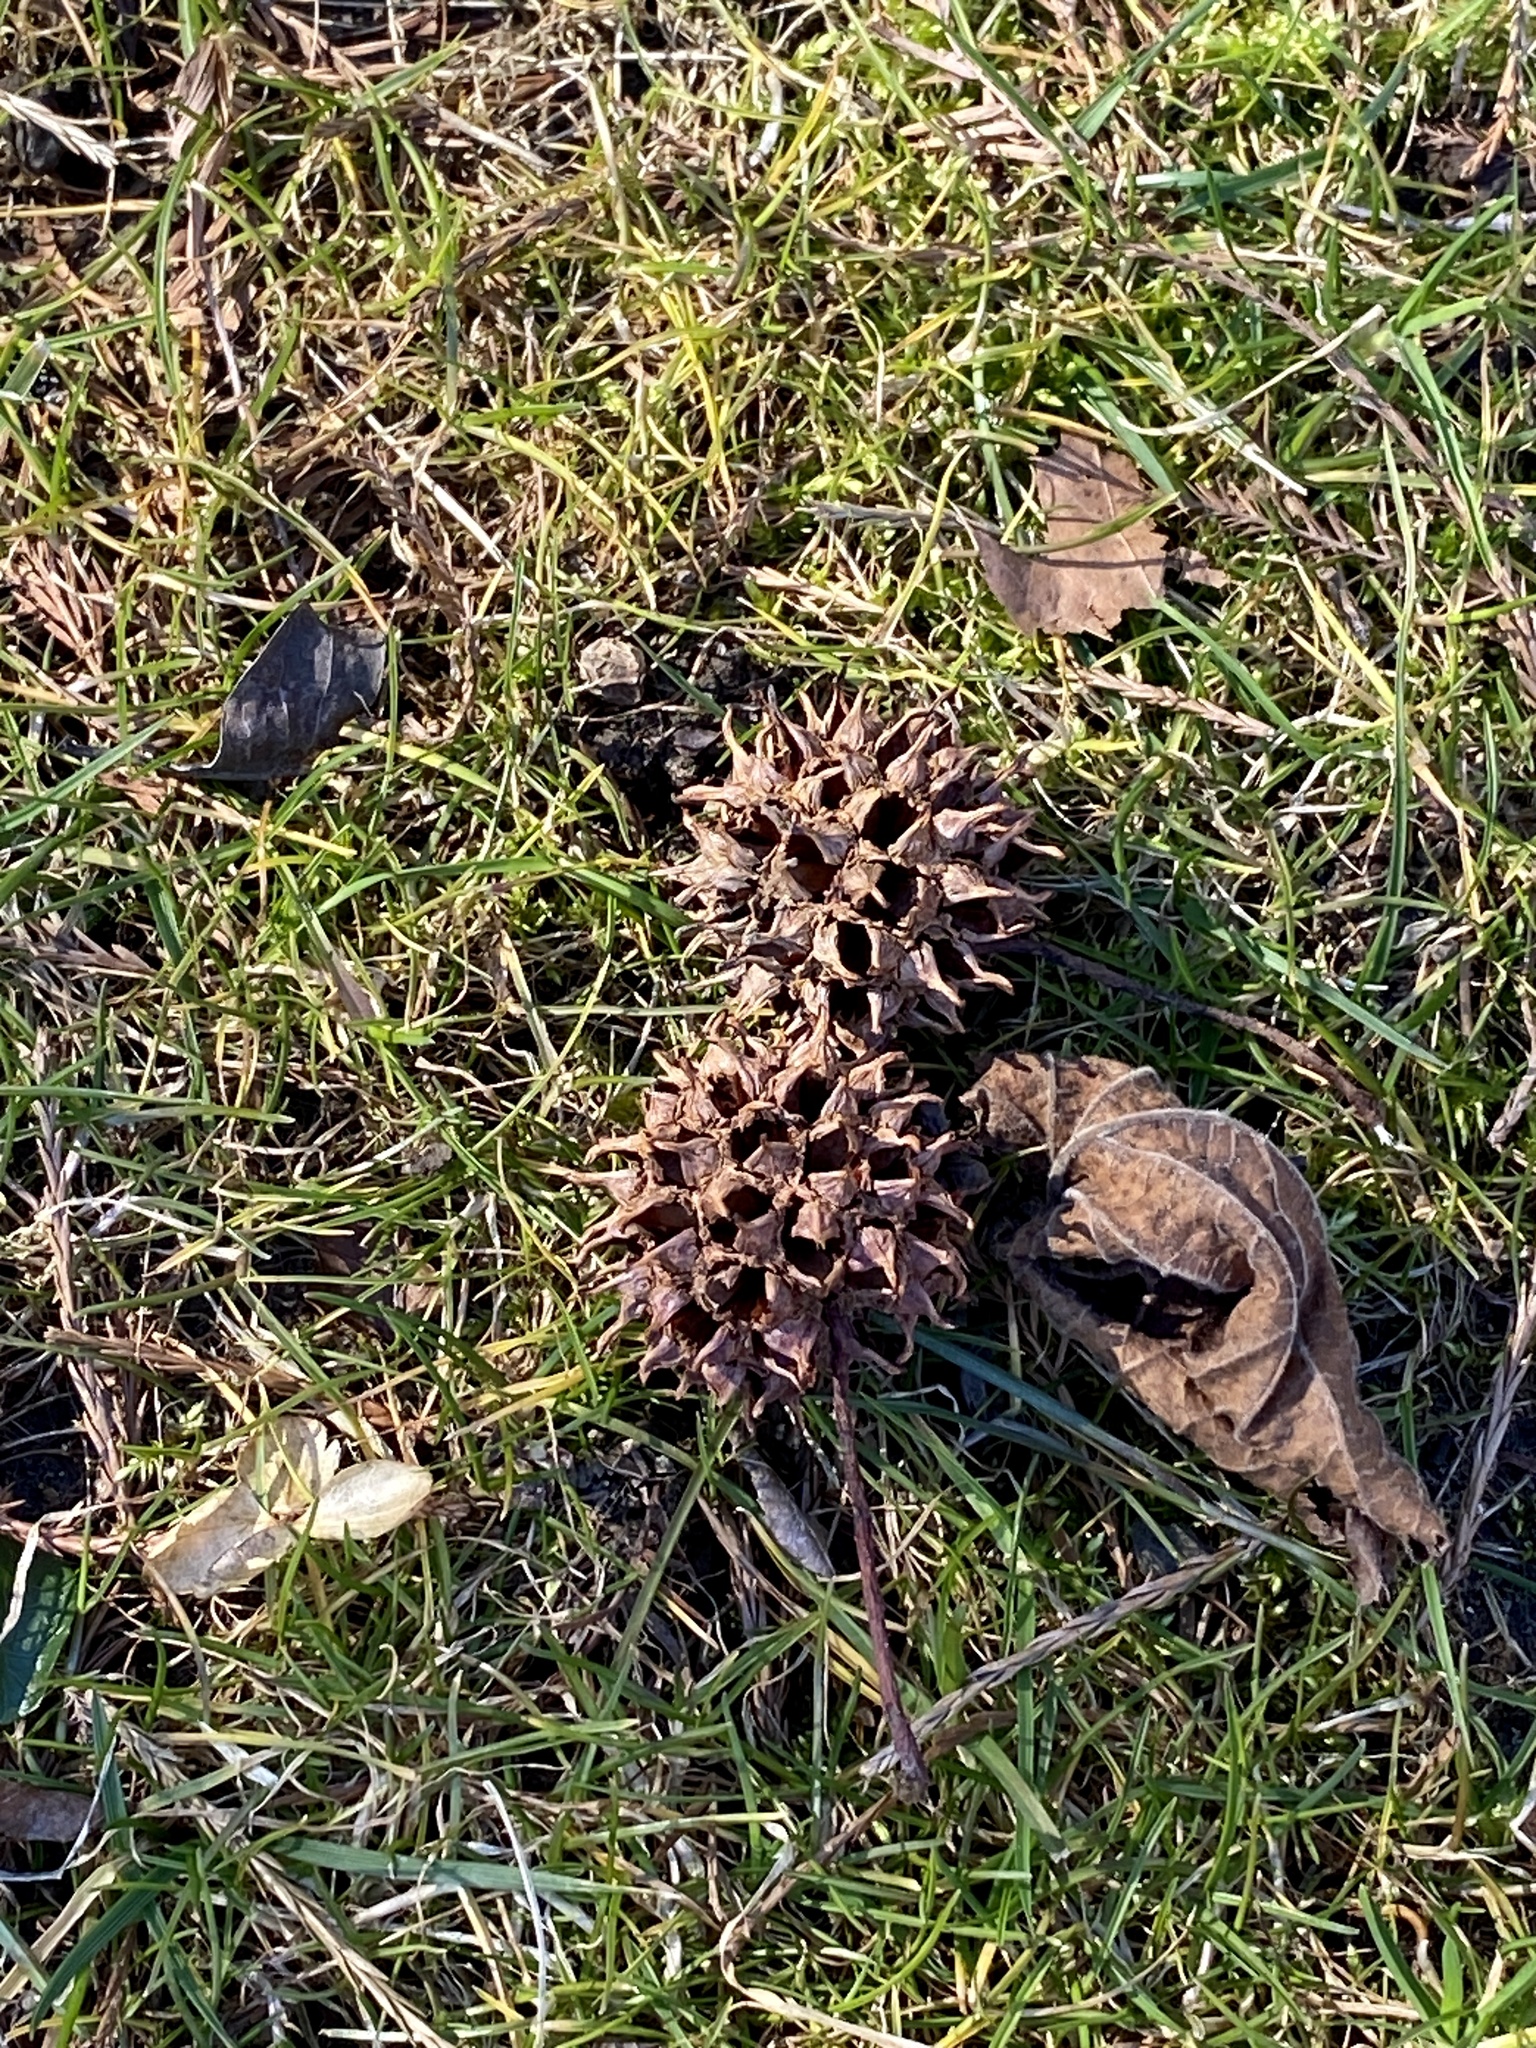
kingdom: Plantae
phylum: Tracheophyta
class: Magnoliopsida
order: Saxifragales
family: Altingiaceae
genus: Liquidambar
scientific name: Liquidambar styraciflua
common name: Sweet gum
